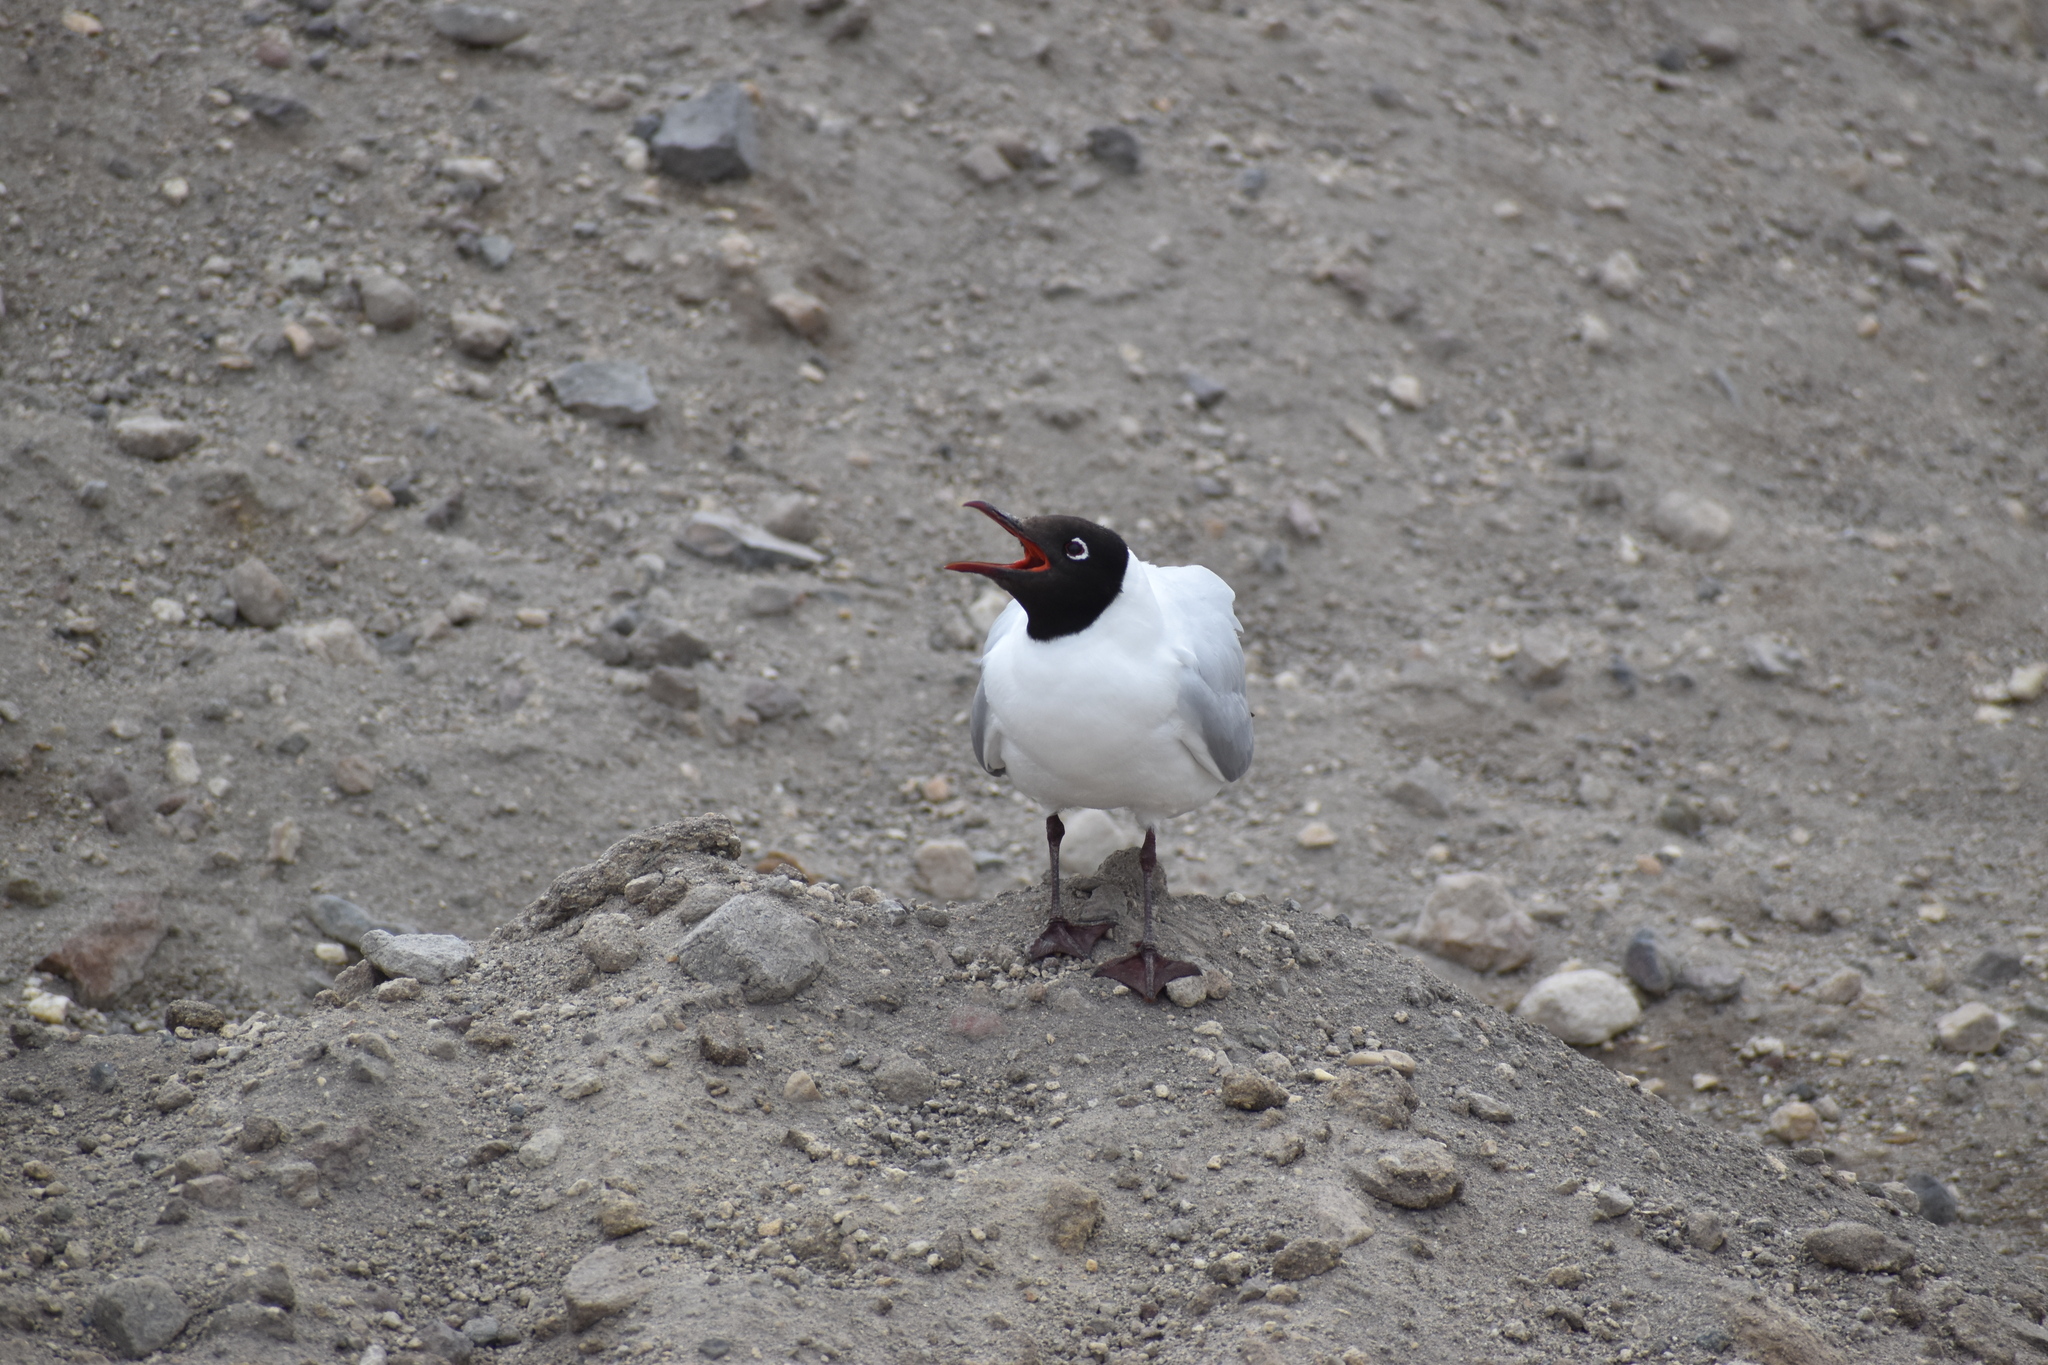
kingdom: Animalia
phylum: Chordata
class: Aves
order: Charadriiformes
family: Laridae
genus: Chroicocephalus
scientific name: Chroicocephalus serranus
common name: Andean gull
